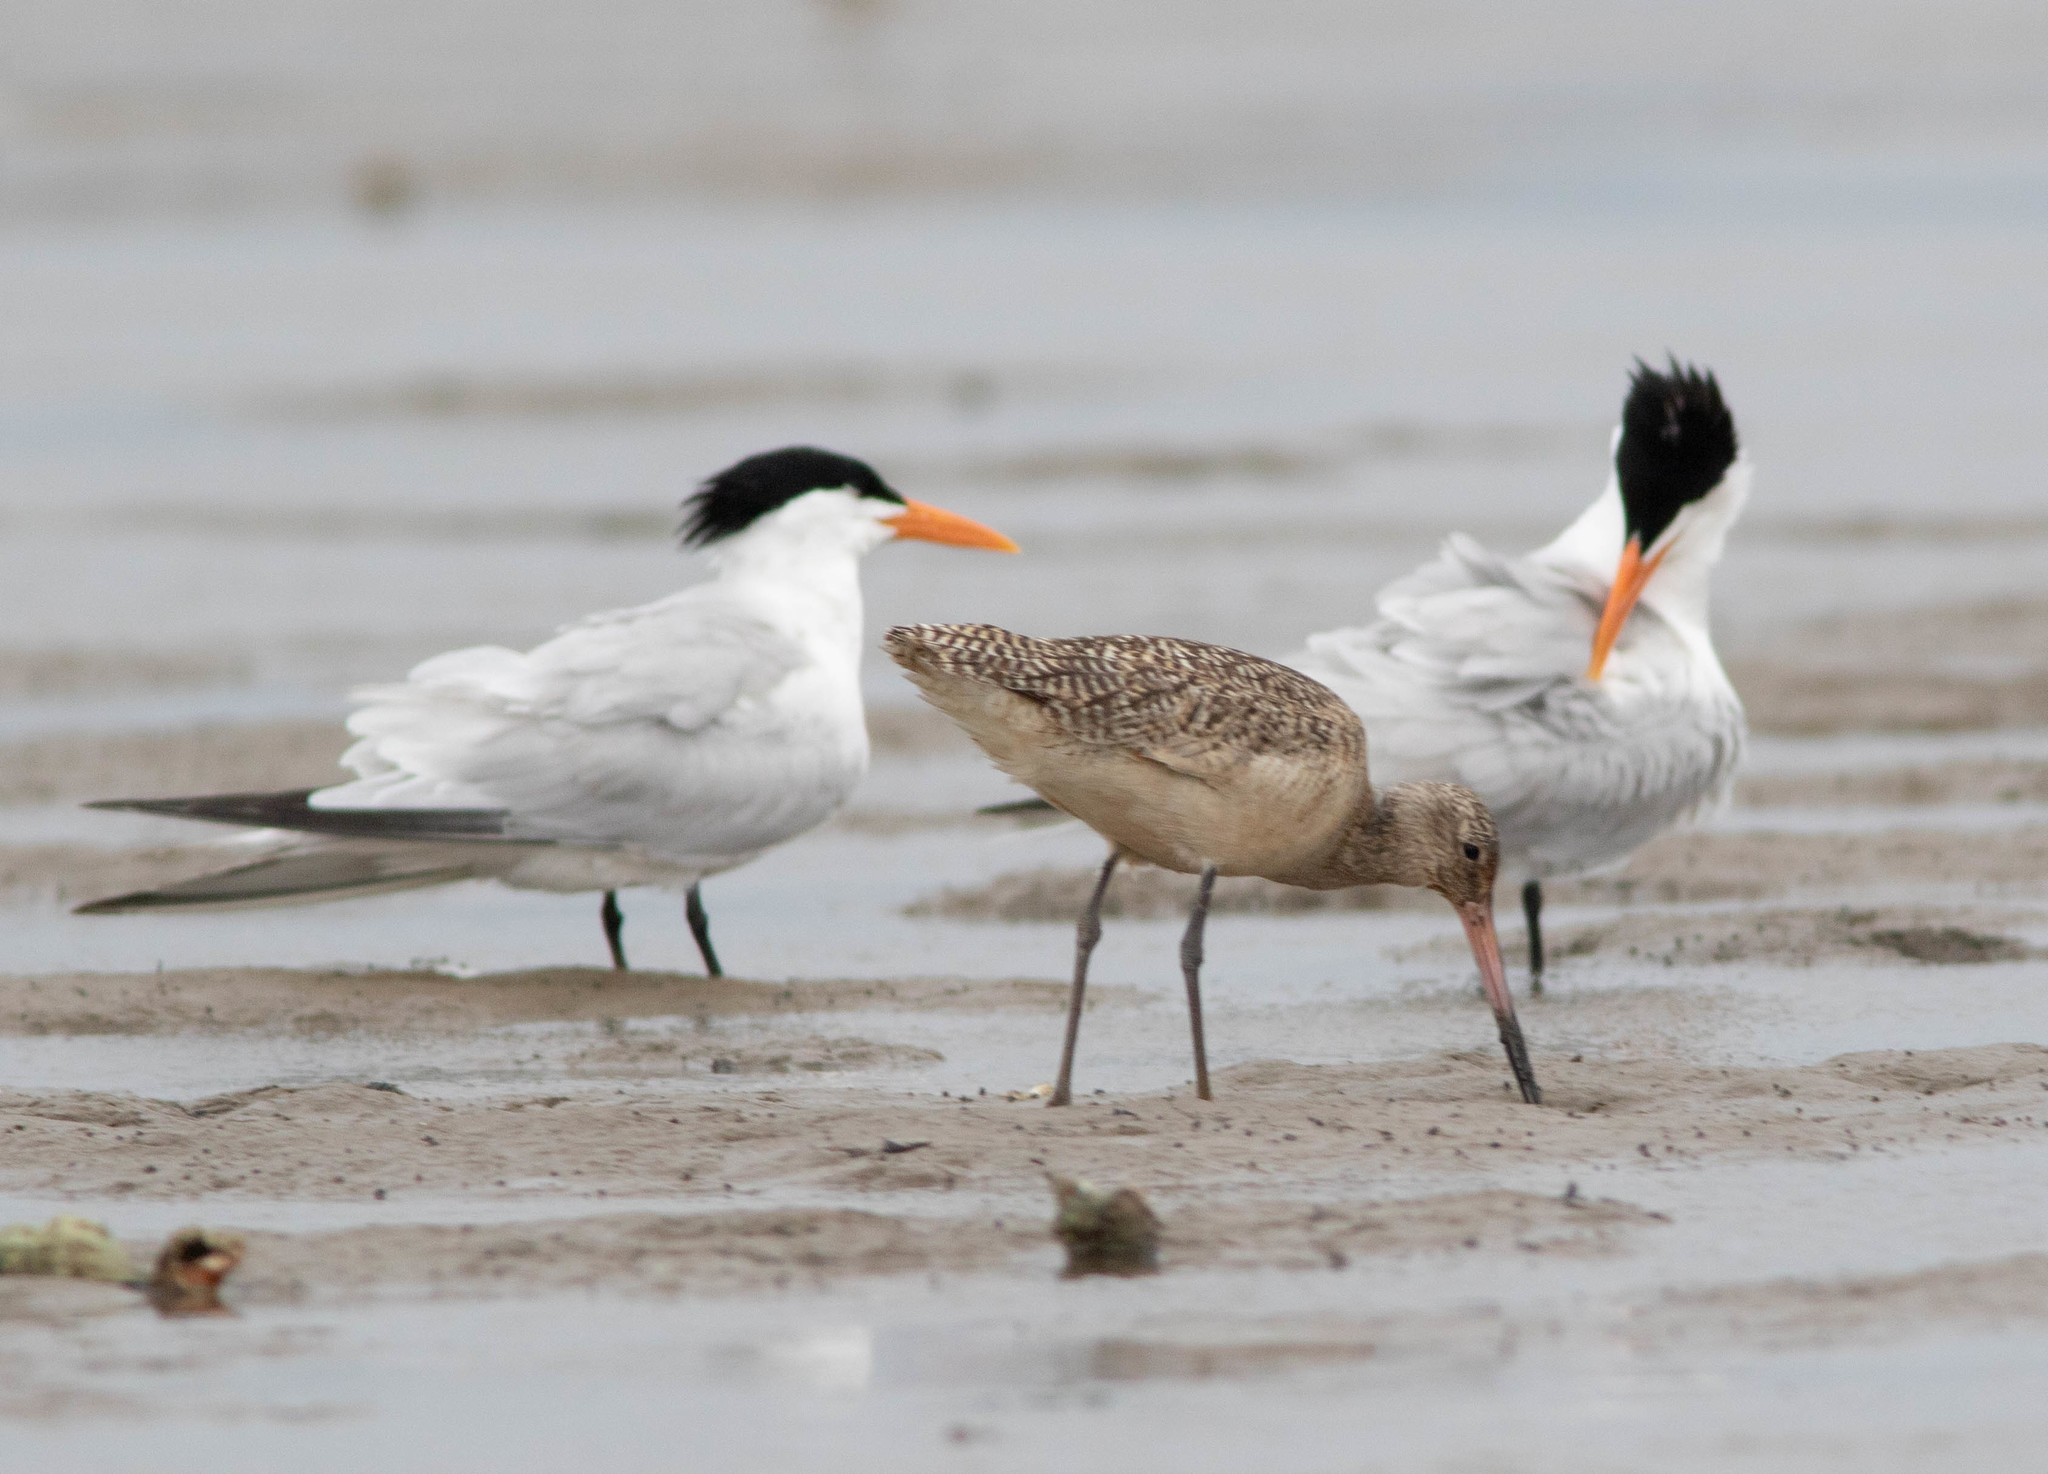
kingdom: Animalia
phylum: Chordata
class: Aves
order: Charadriiformes
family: Scolopacidae
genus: Limosa
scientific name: Limosa fedoa
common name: Marbled godwit
